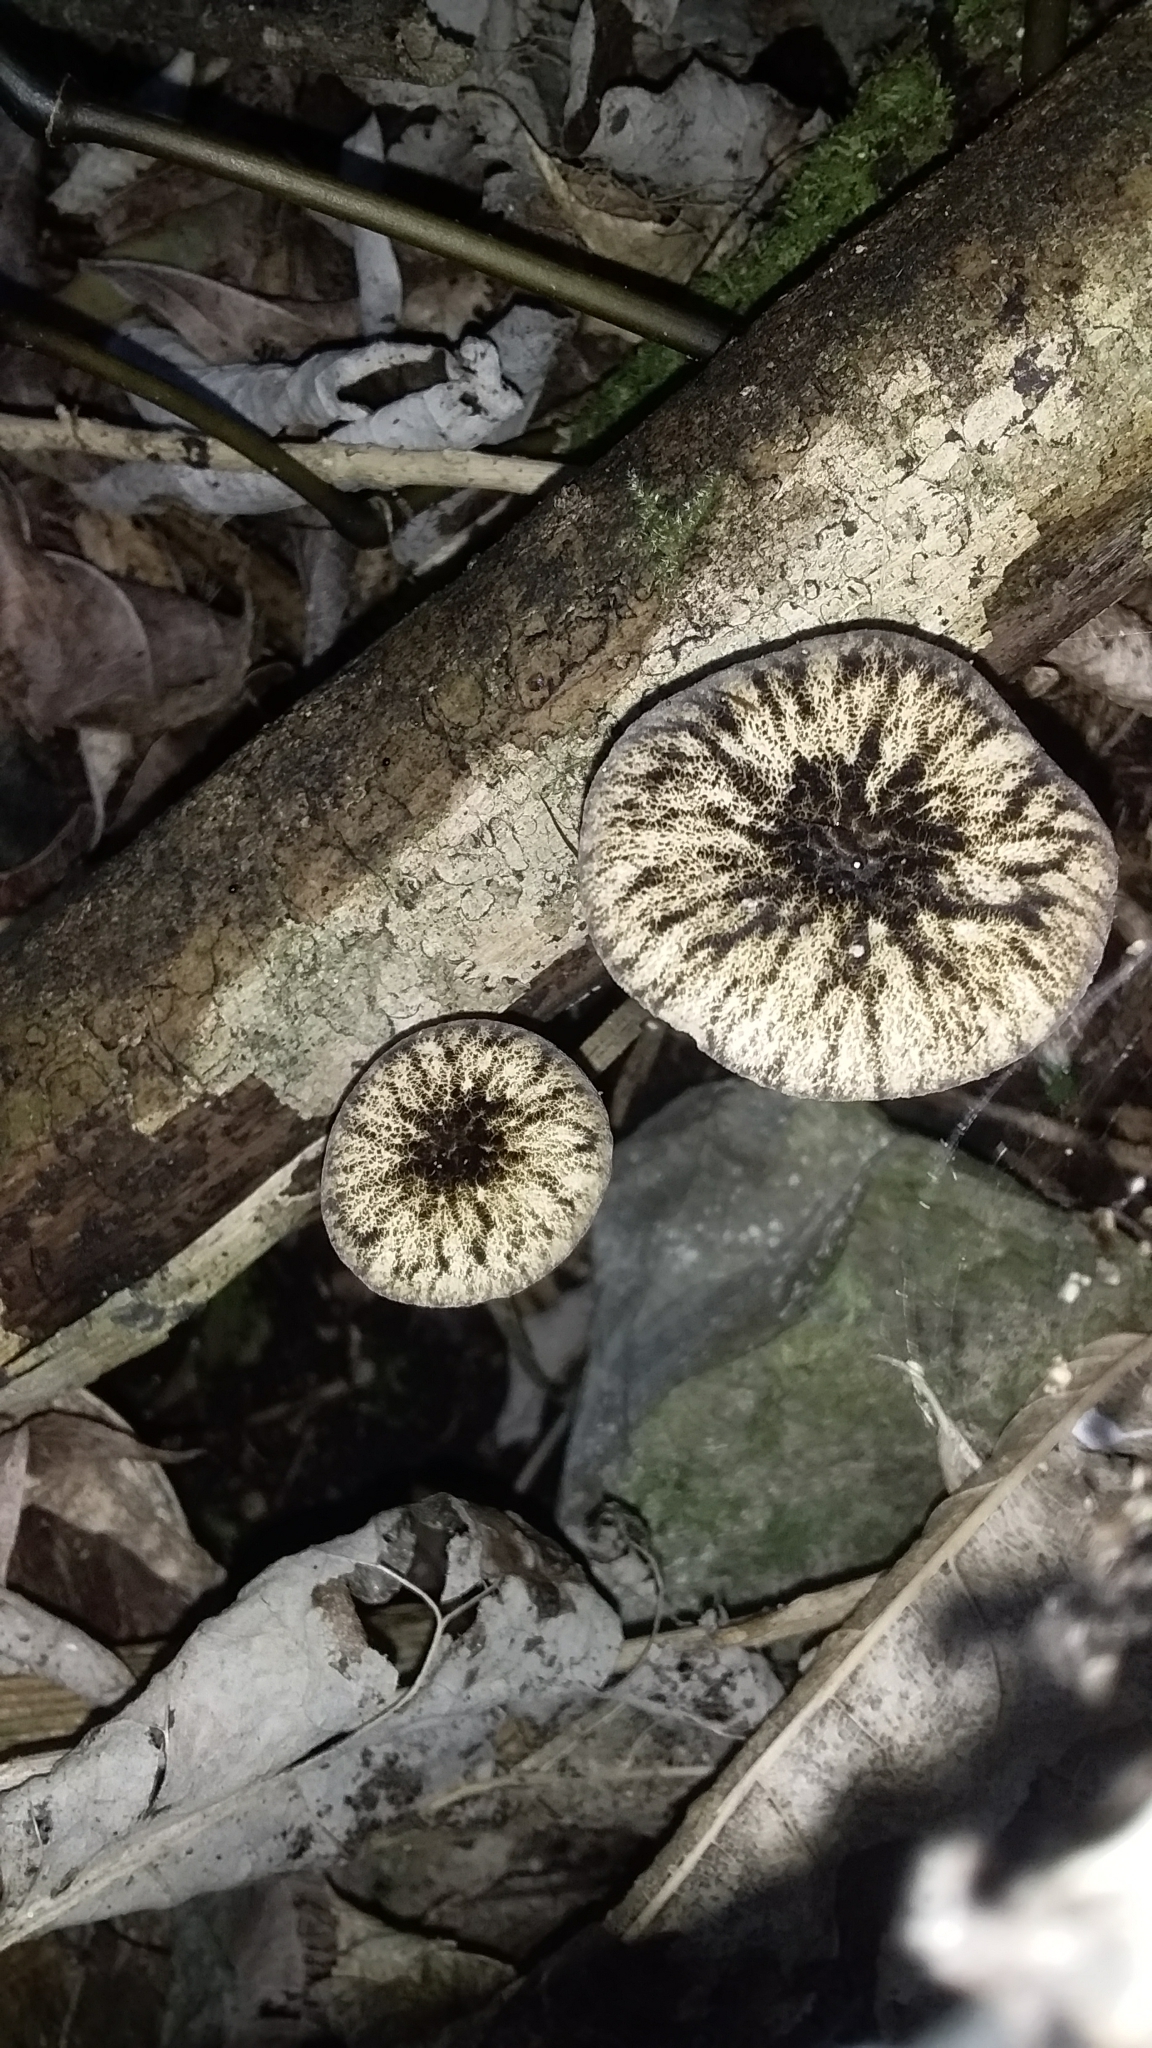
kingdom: Fungi
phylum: Basidiomycota
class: Agaricomycetes
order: Agaricales
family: Pluteaceae
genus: Pluteus
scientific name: Pluteus readiarum
